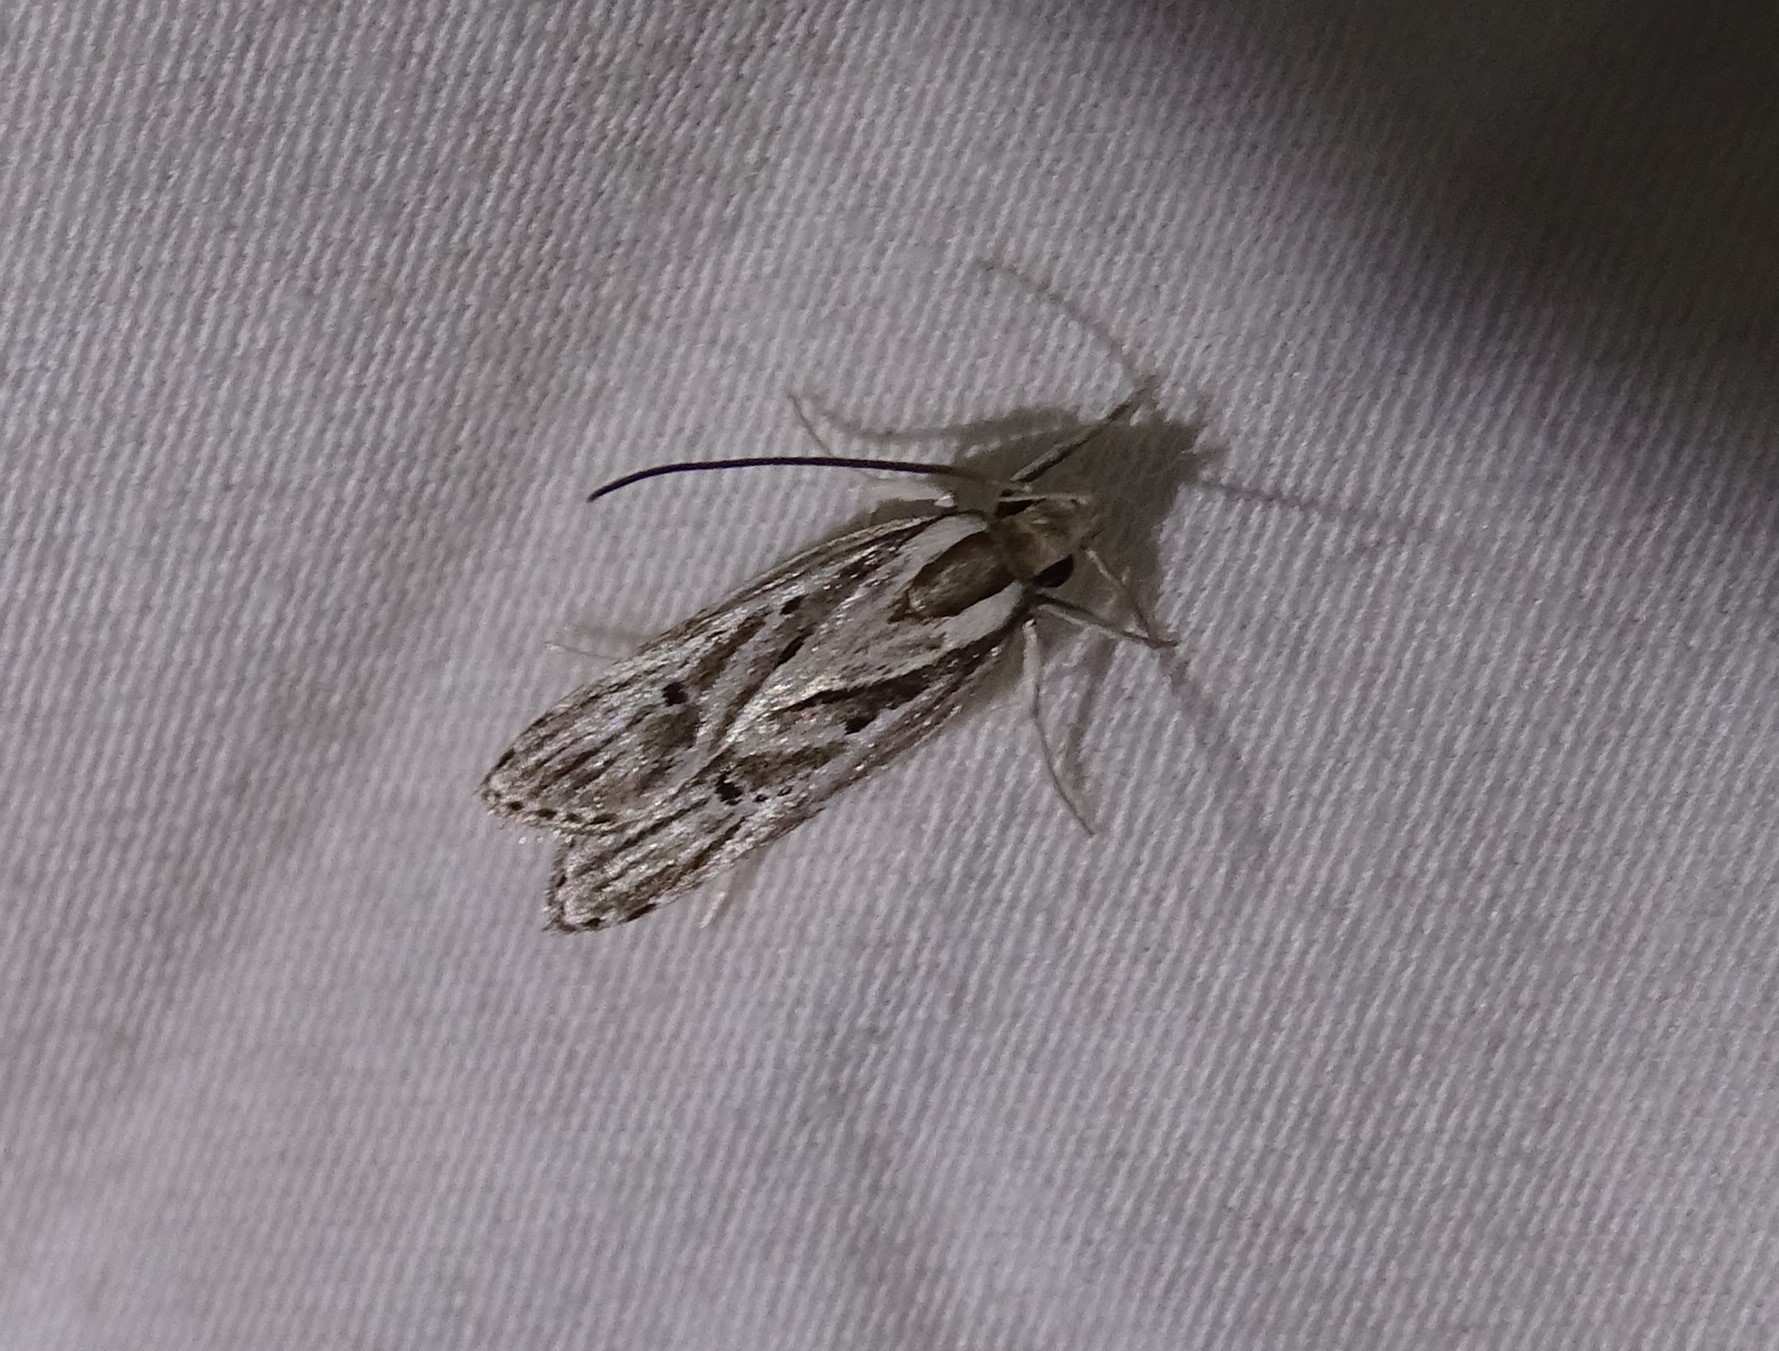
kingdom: Animalia
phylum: Arthropoda
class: Insecta
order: Lepidoptera
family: Depressariidae
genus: Eupragia
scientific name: Eupragia hospita
